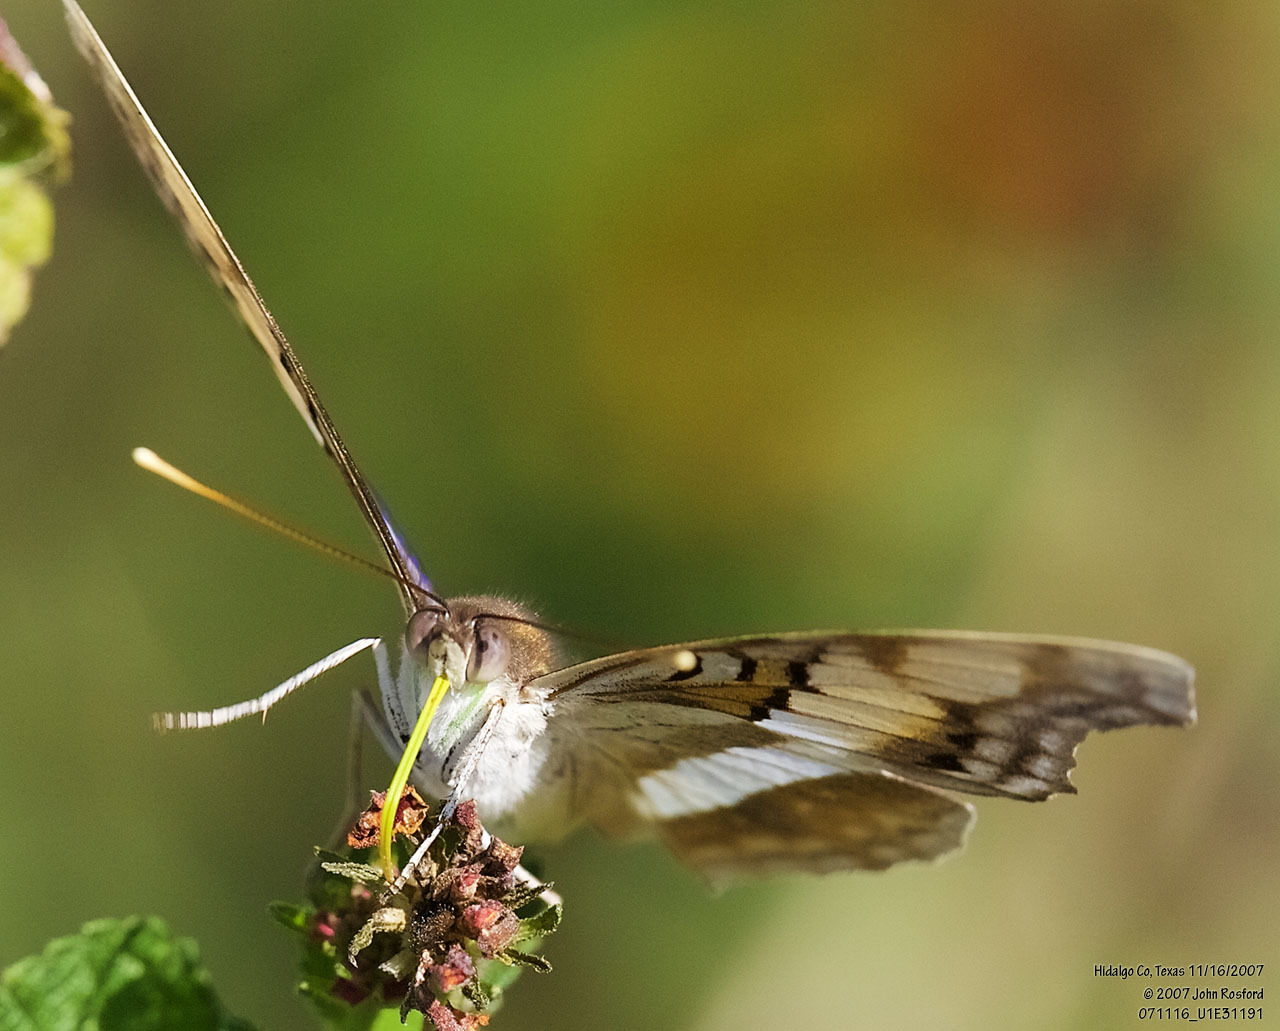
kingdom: Animalia
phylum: Arthropoda
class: Insecta
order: Lepidoptera
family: Nymphalidae
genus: Doxocopa
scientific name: Doxocopa laure
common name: Silver emperor
